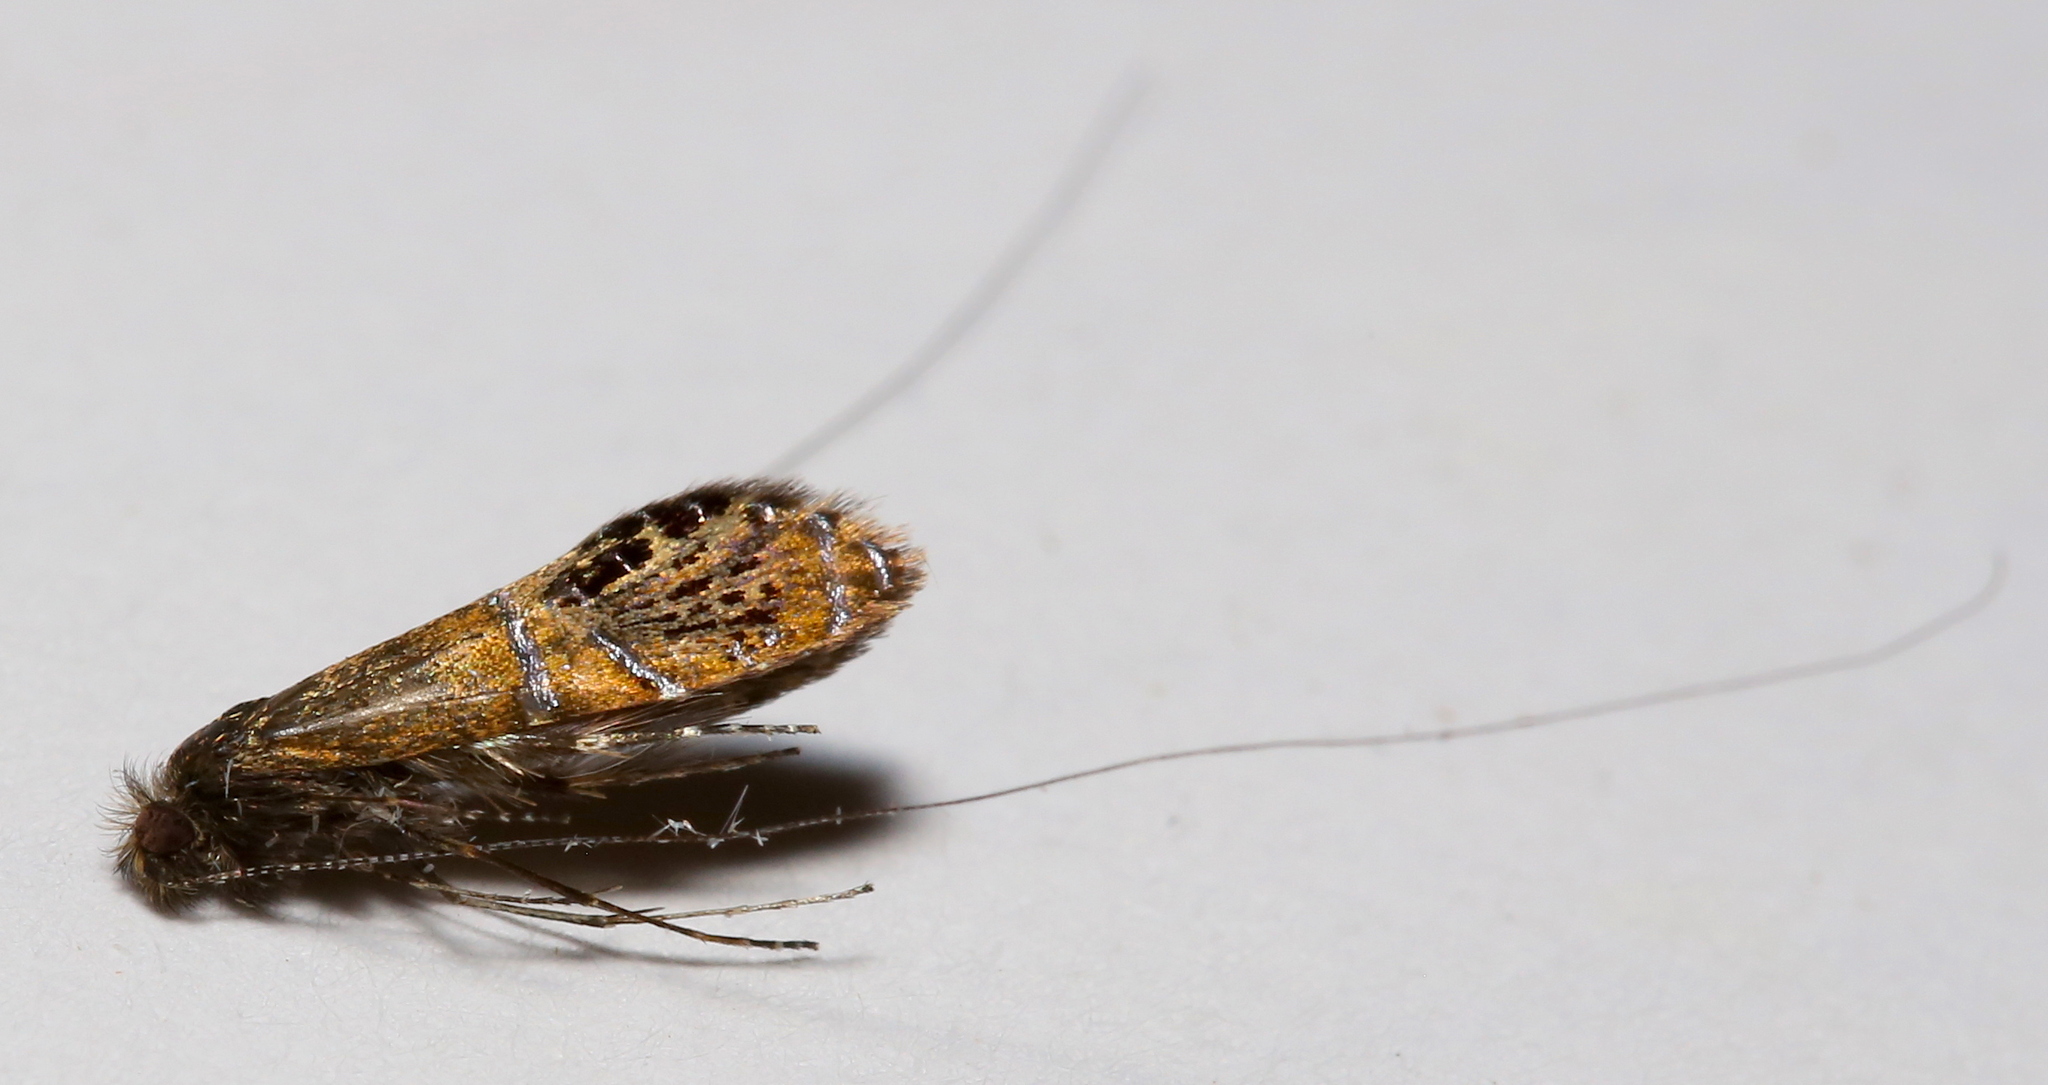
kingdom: Animalia
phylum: Arthropoda
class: Insecta
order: Lepidoptera
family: Adelidae
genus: Adela
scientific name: Adela ridingsella
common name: Ridings' fairy moth
